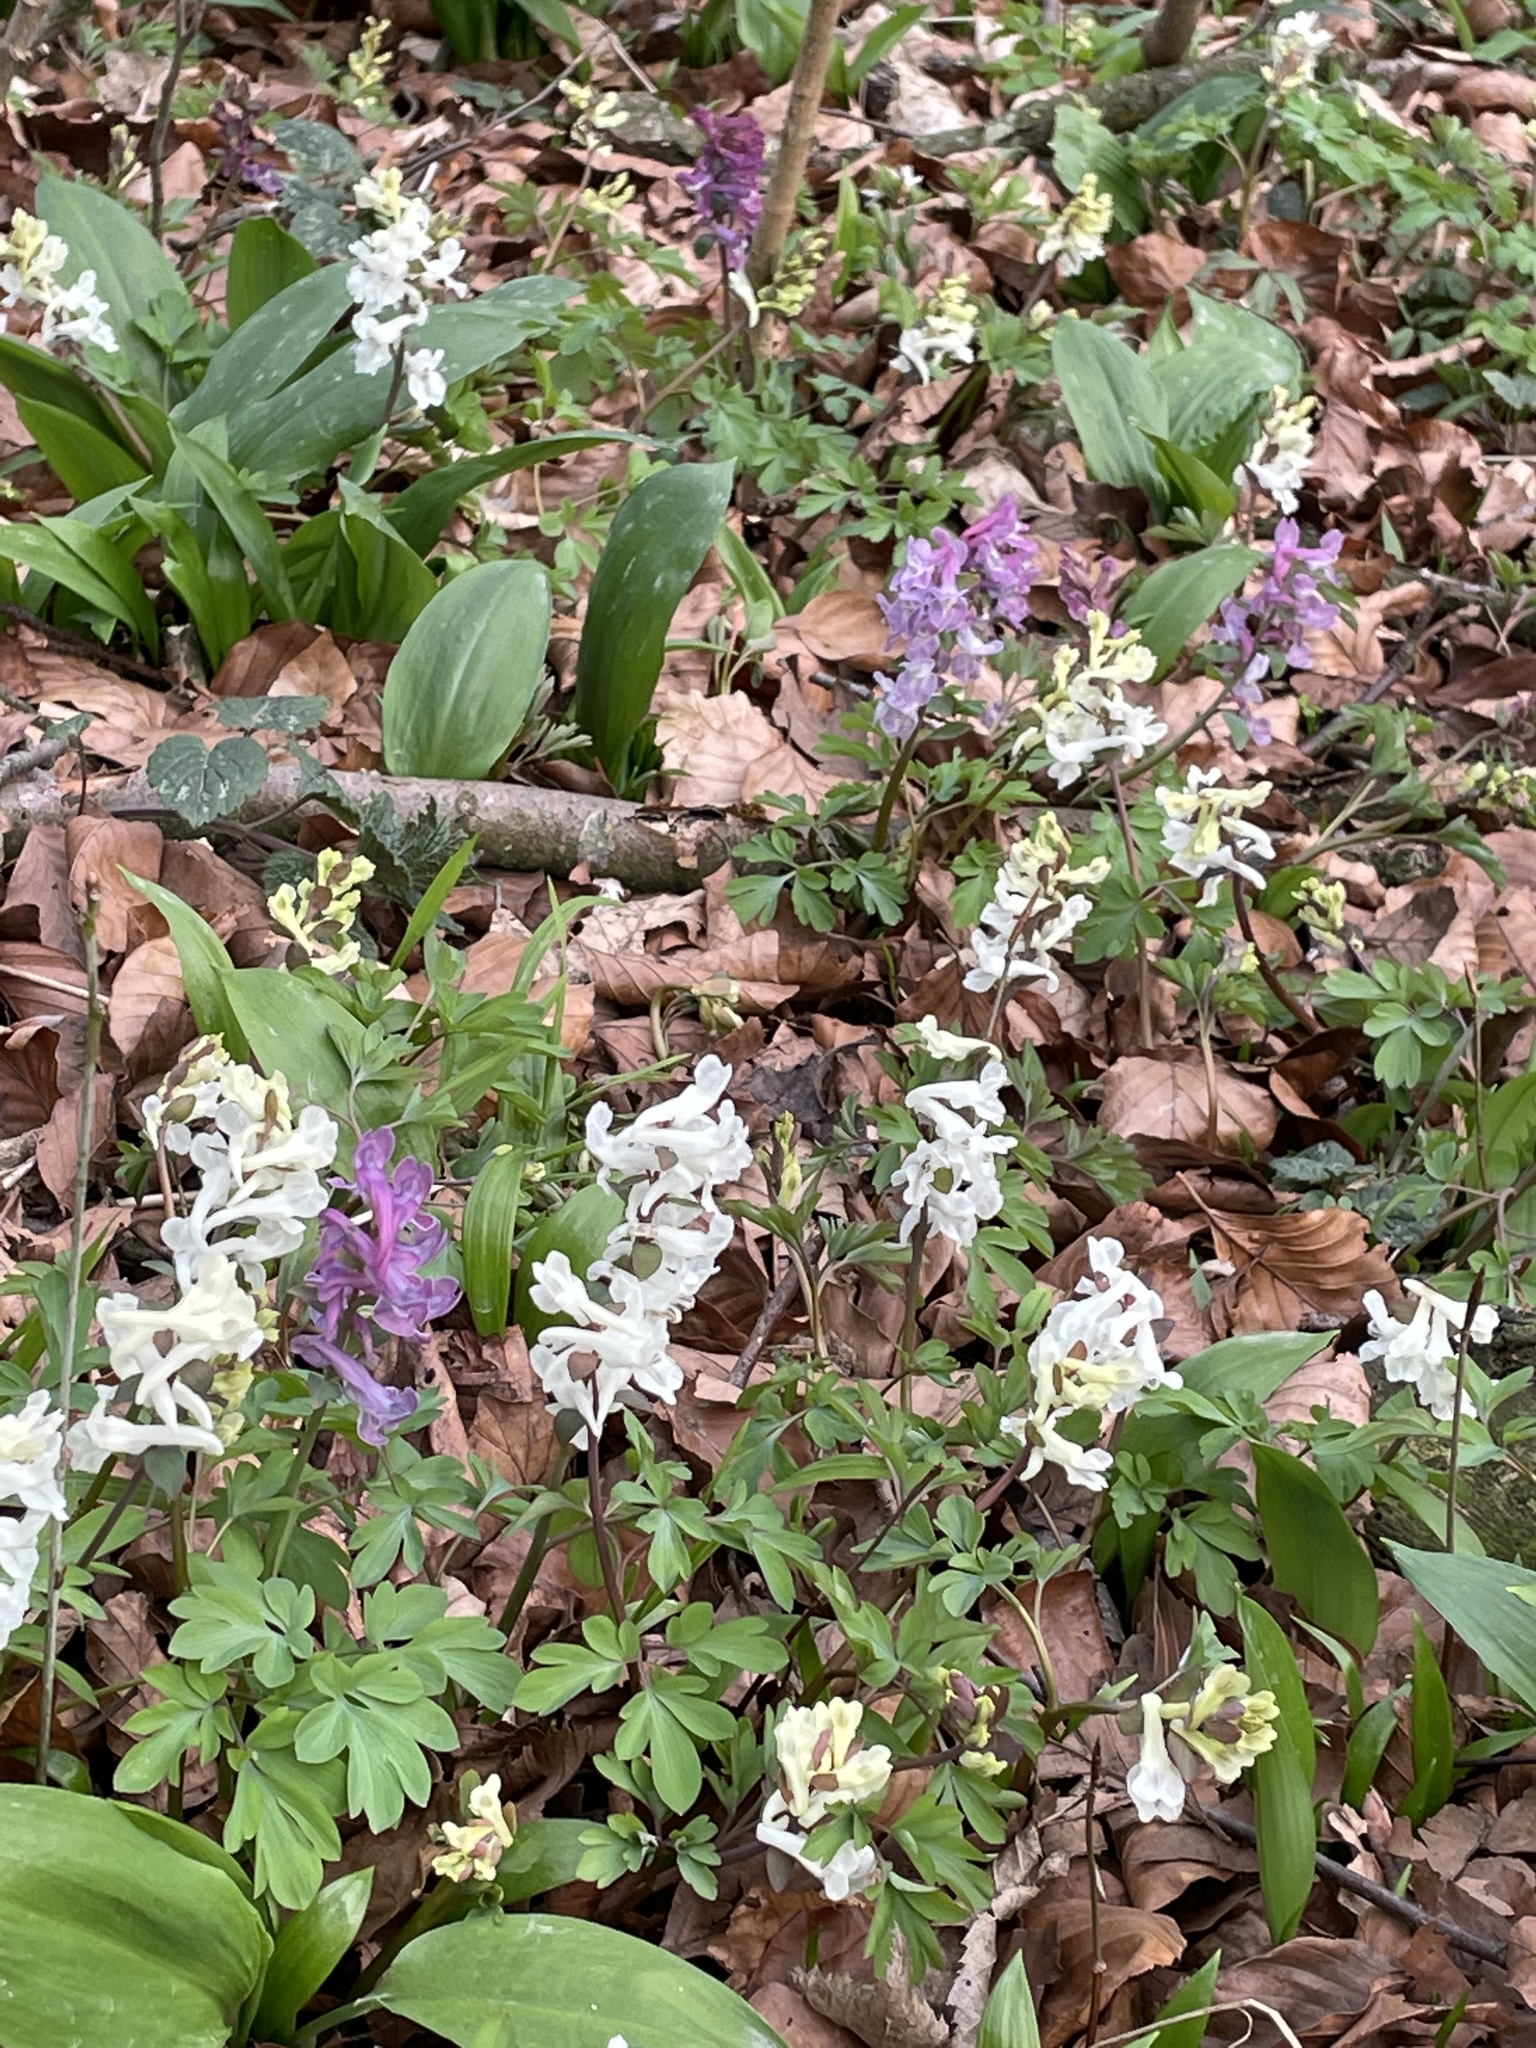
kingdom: Plantae
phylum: Tracheophyta
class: Magnoliopsida
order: Ranunculales
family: Papaveraceae
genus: Corydalis
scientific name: Corydalis cava
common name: Hollowroot
